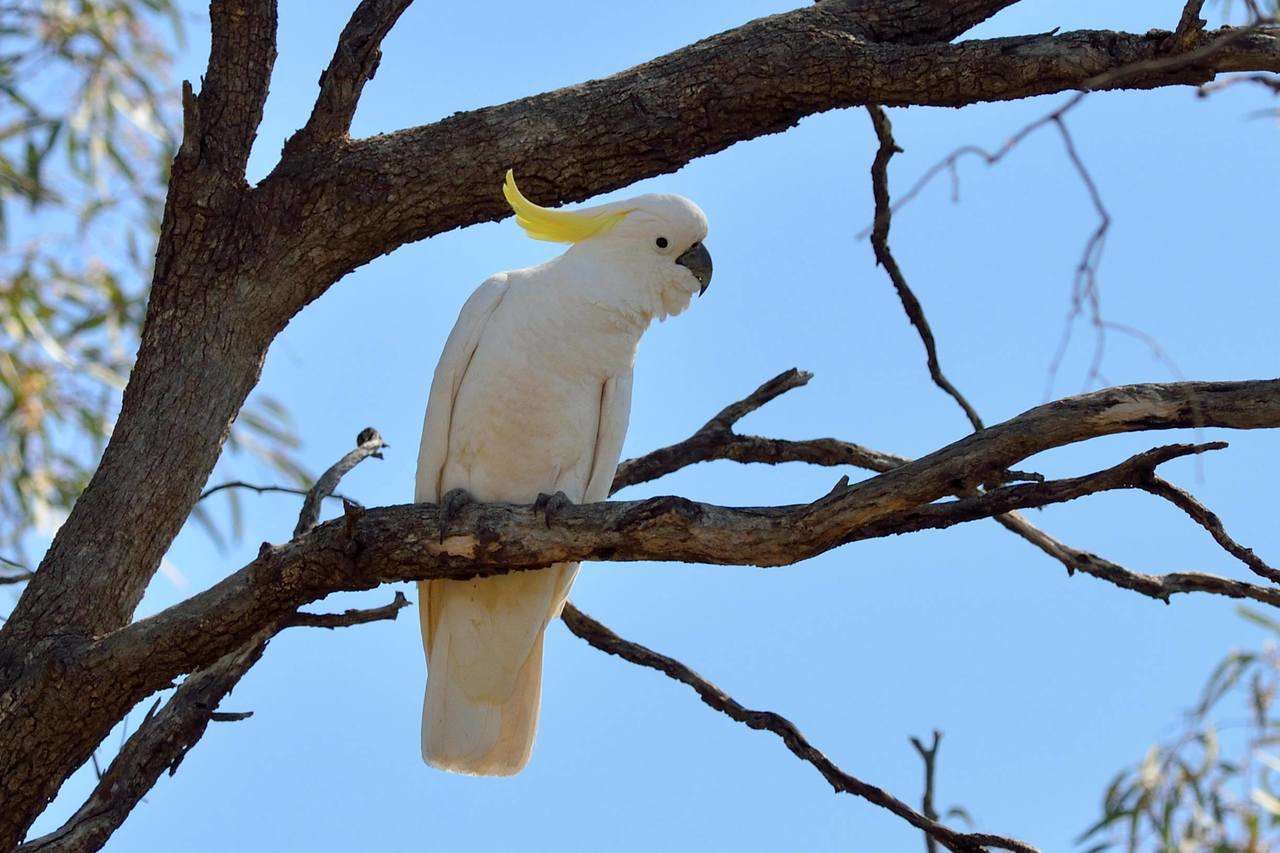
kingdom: Animalia
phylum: Chordata
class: Aves
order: Psittaciformes
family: Psittacidae
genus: Cacatua
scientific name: Cacatua galerita
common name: Sulphur-crested cockatoo
